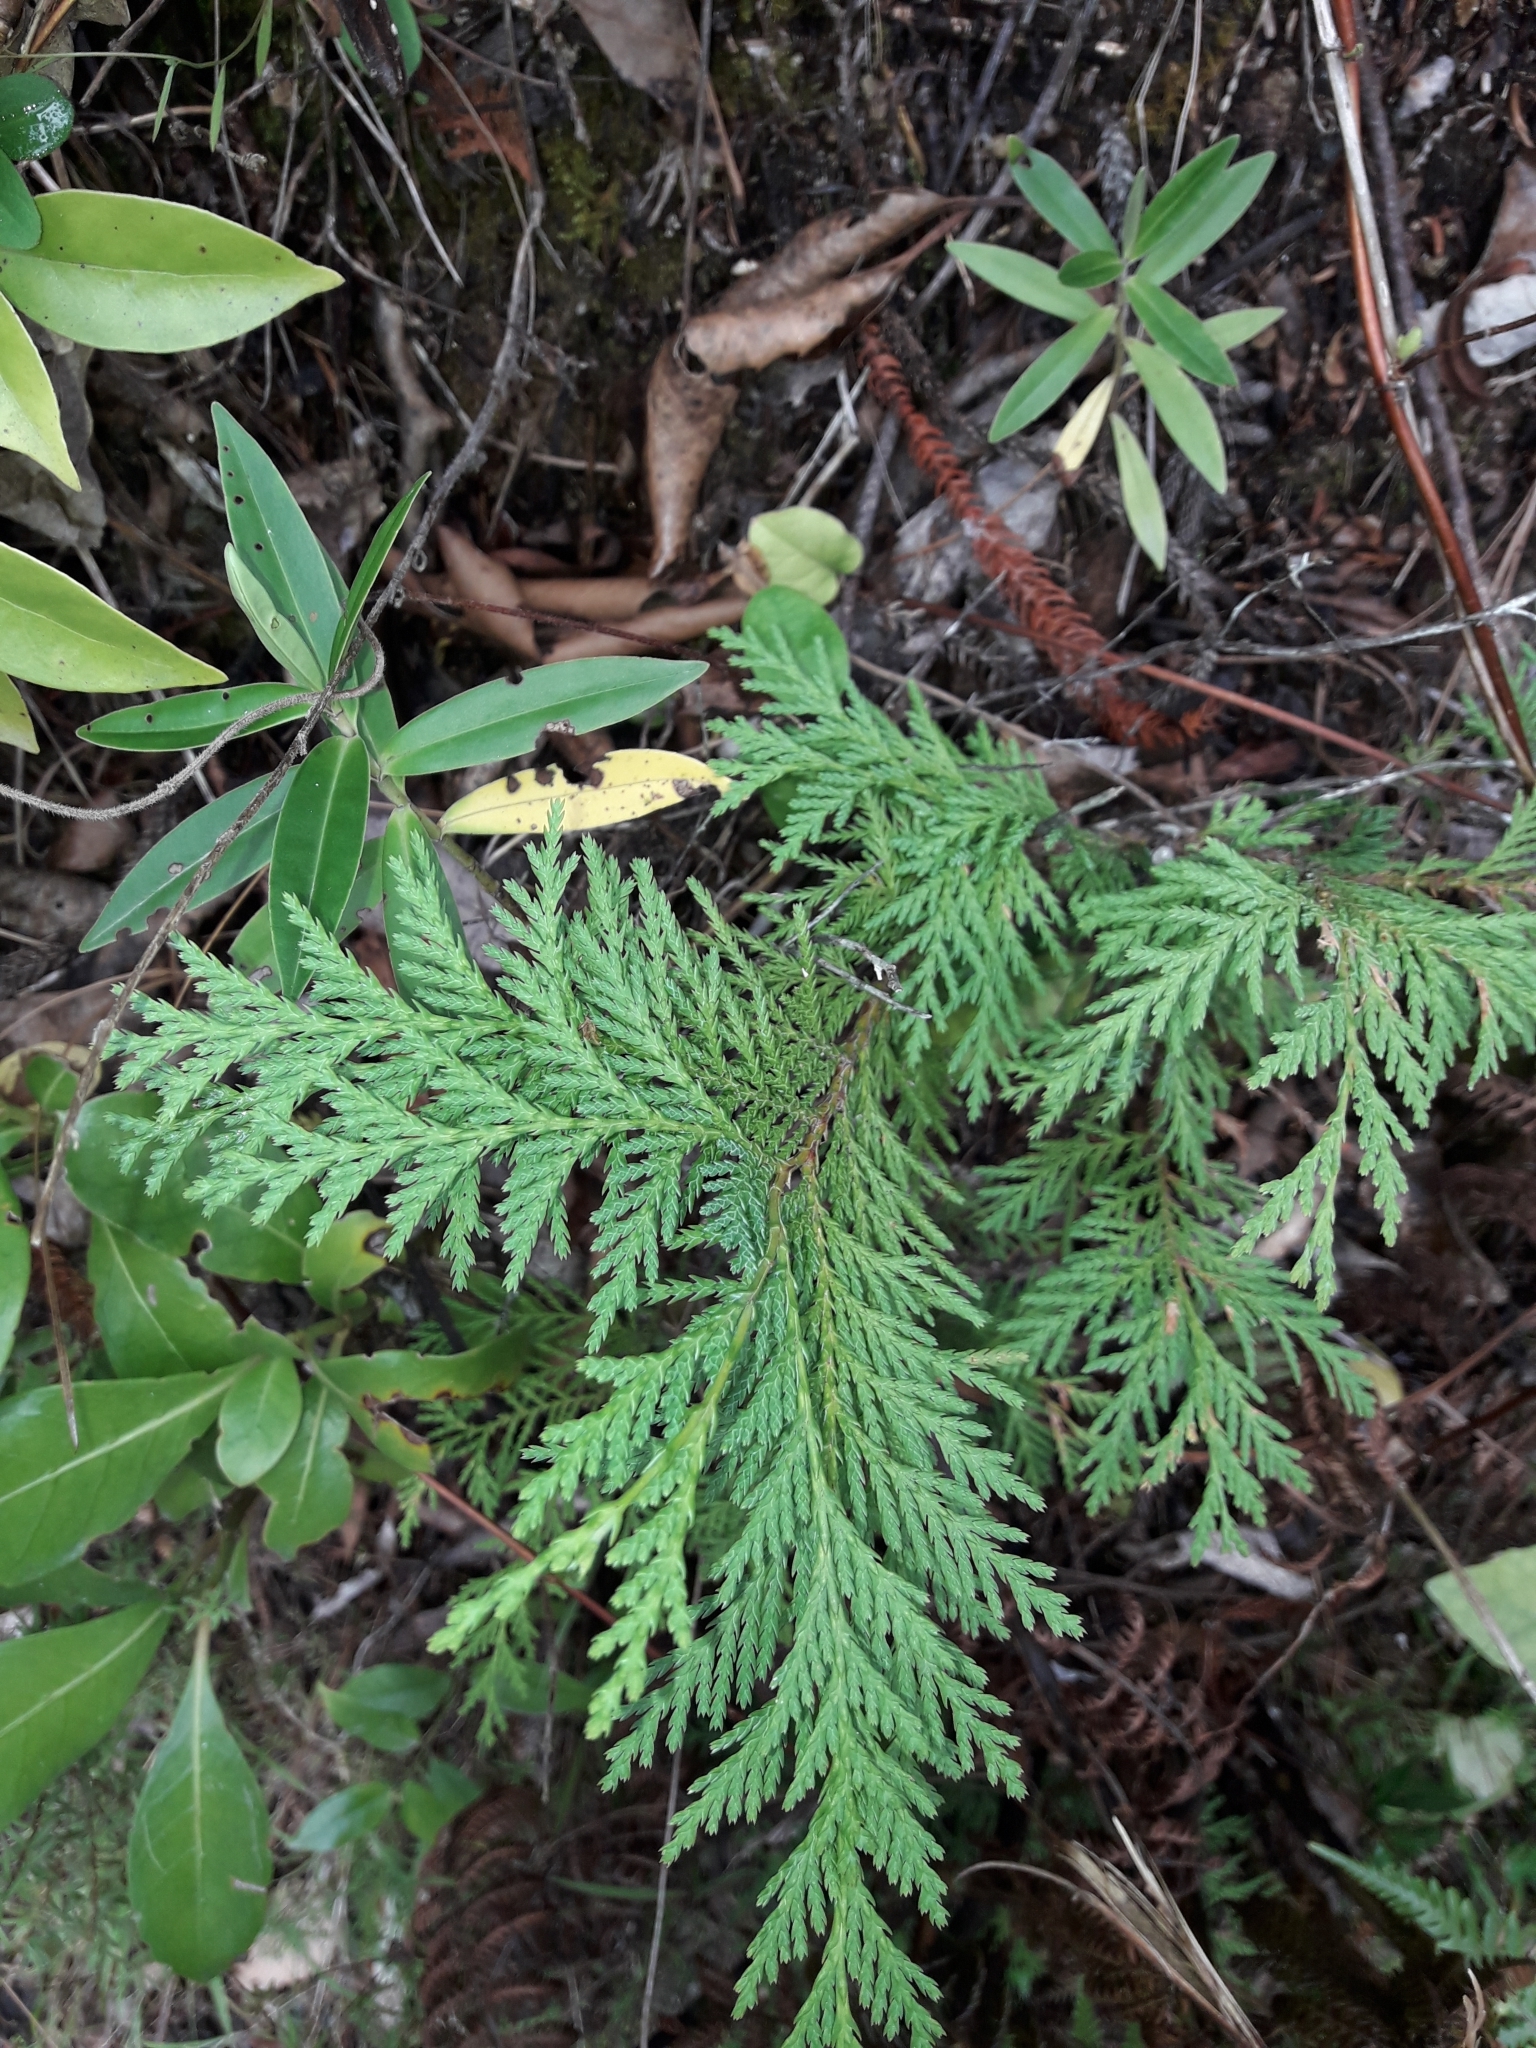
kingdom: Plantae
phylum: Tracheophyta
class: Pinopsida
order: Pinales
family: Cupressaceae
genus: Chamaecyparis
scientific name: Chamaecyparis lawsoniana
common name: Lawson's cypress
